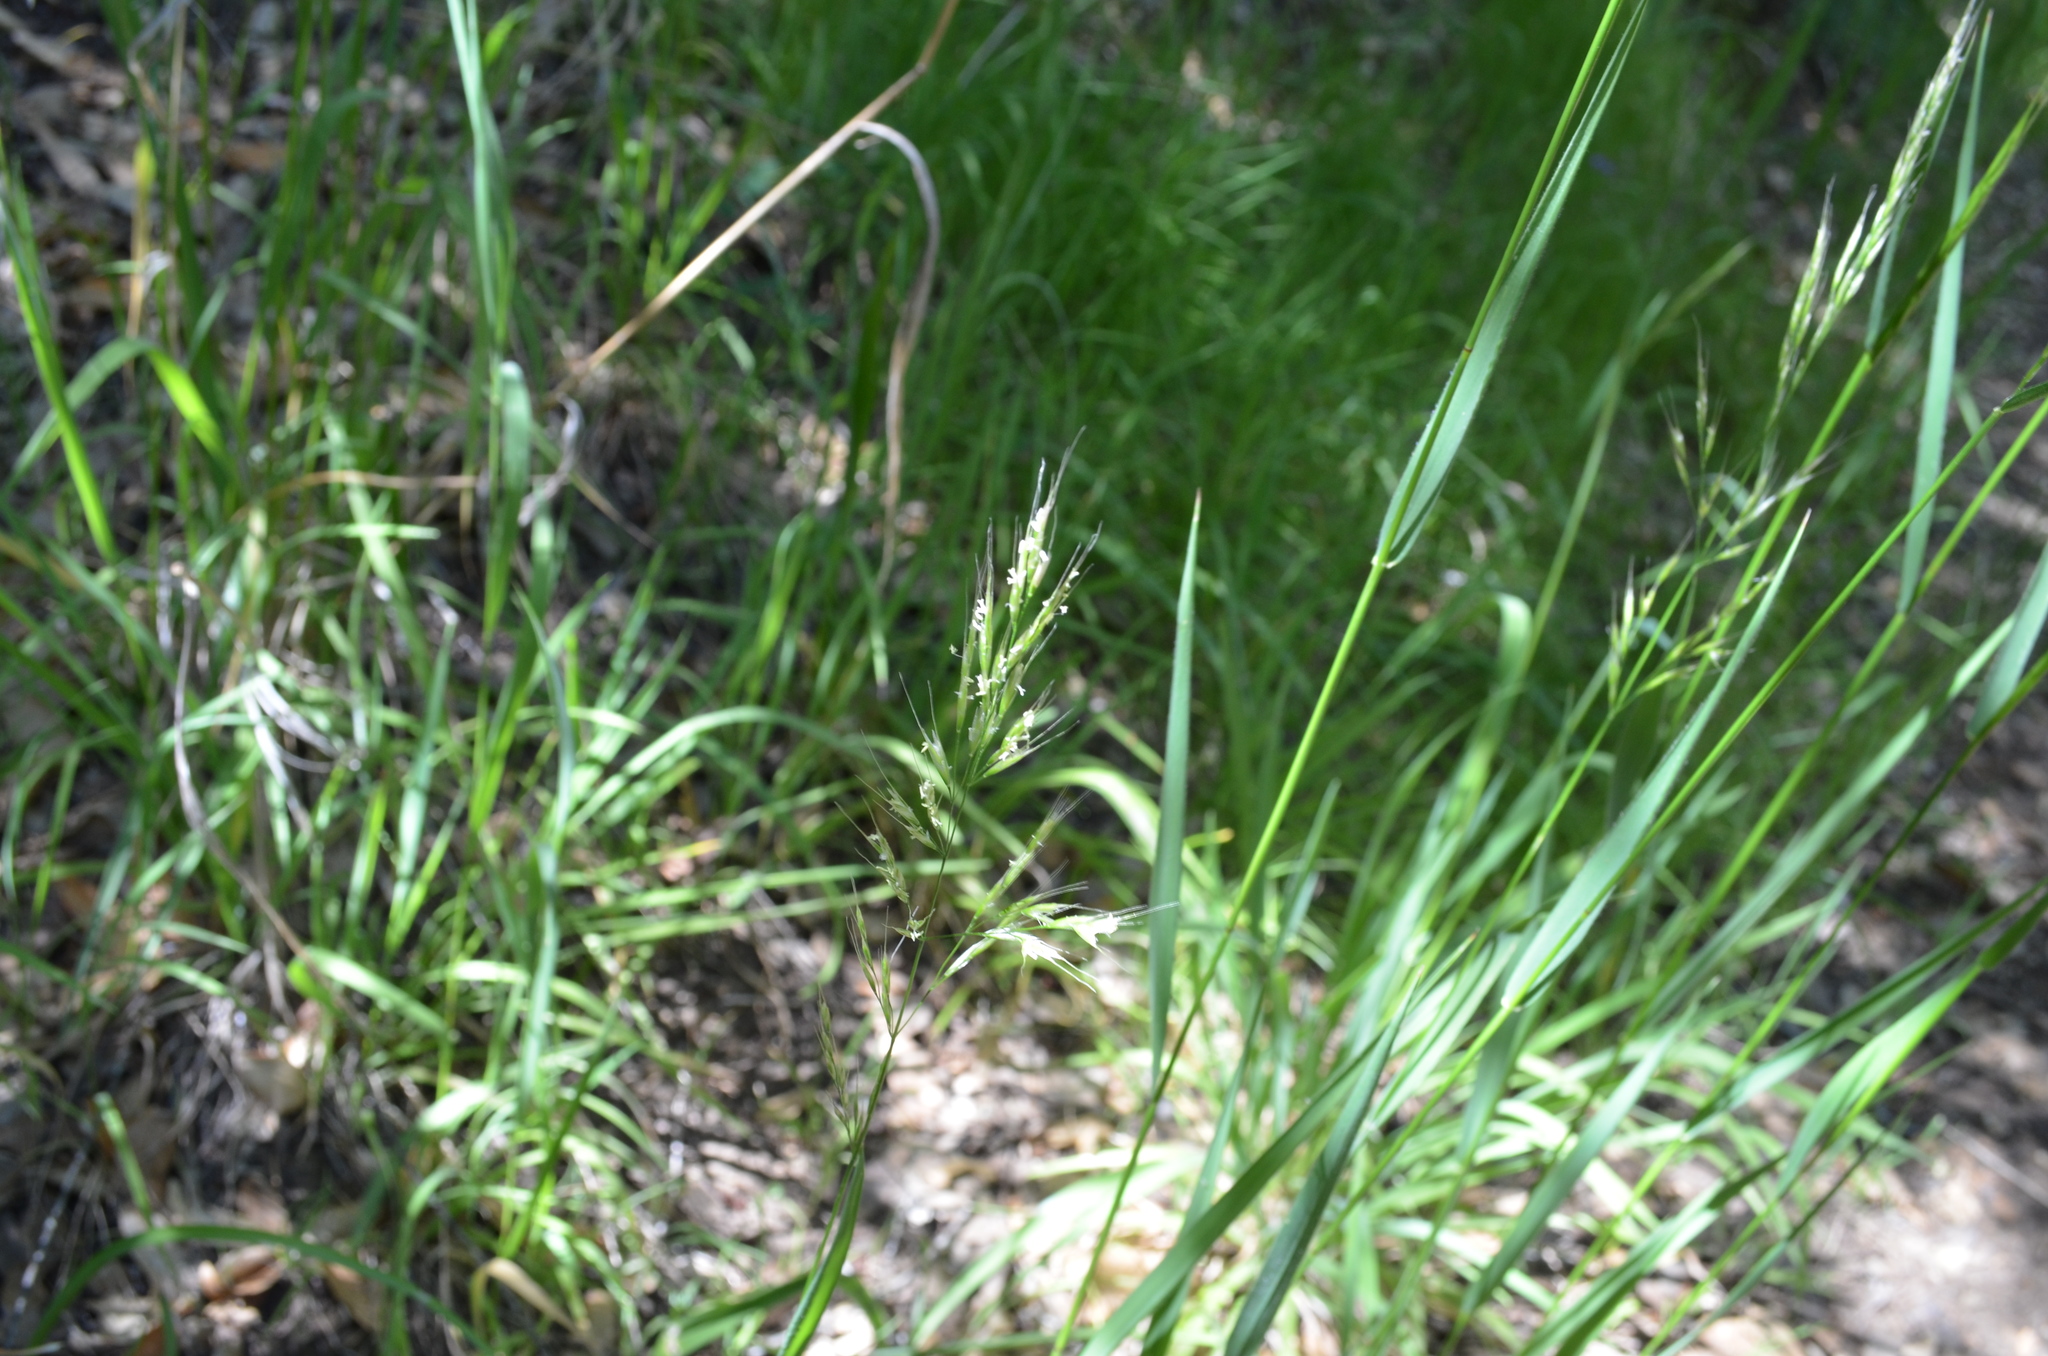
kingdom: Plantae
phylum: Tracheophyta
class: Liliopsida
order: Poales
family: Poaceae
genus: Graphephorum
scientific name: Graphephorum canescens
